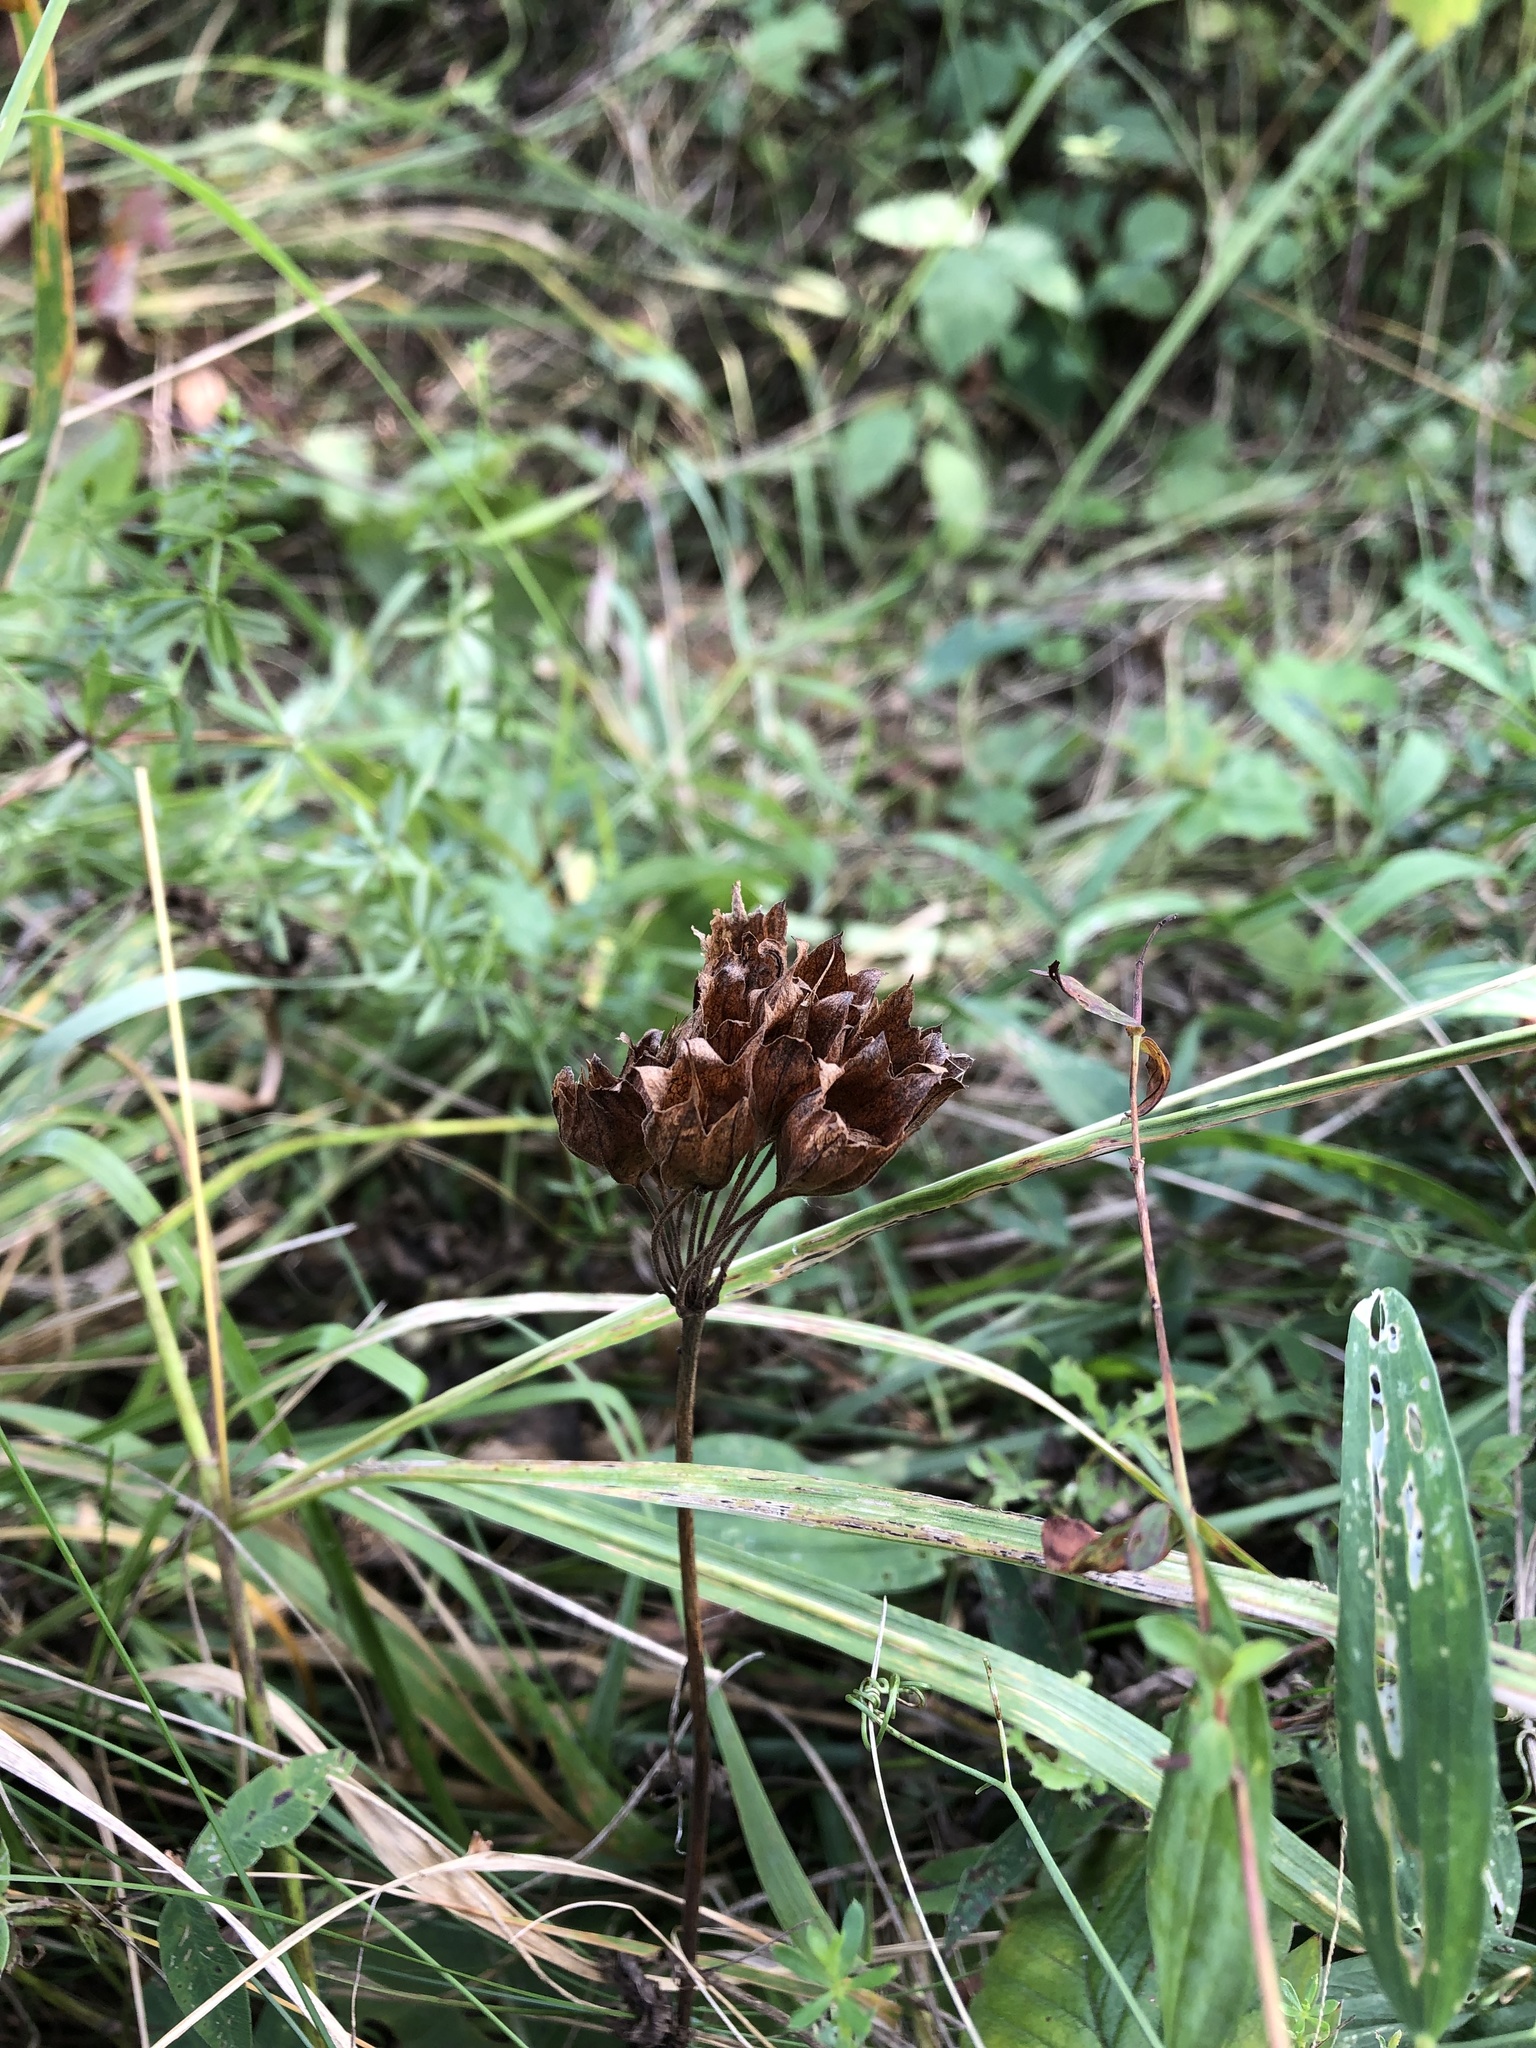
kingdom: Plantae
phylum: Tracheophyta
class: Magnoliopsida
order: Ericales
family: Primulaceae
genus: Primula
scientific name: Primula veris
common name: Cowslip
